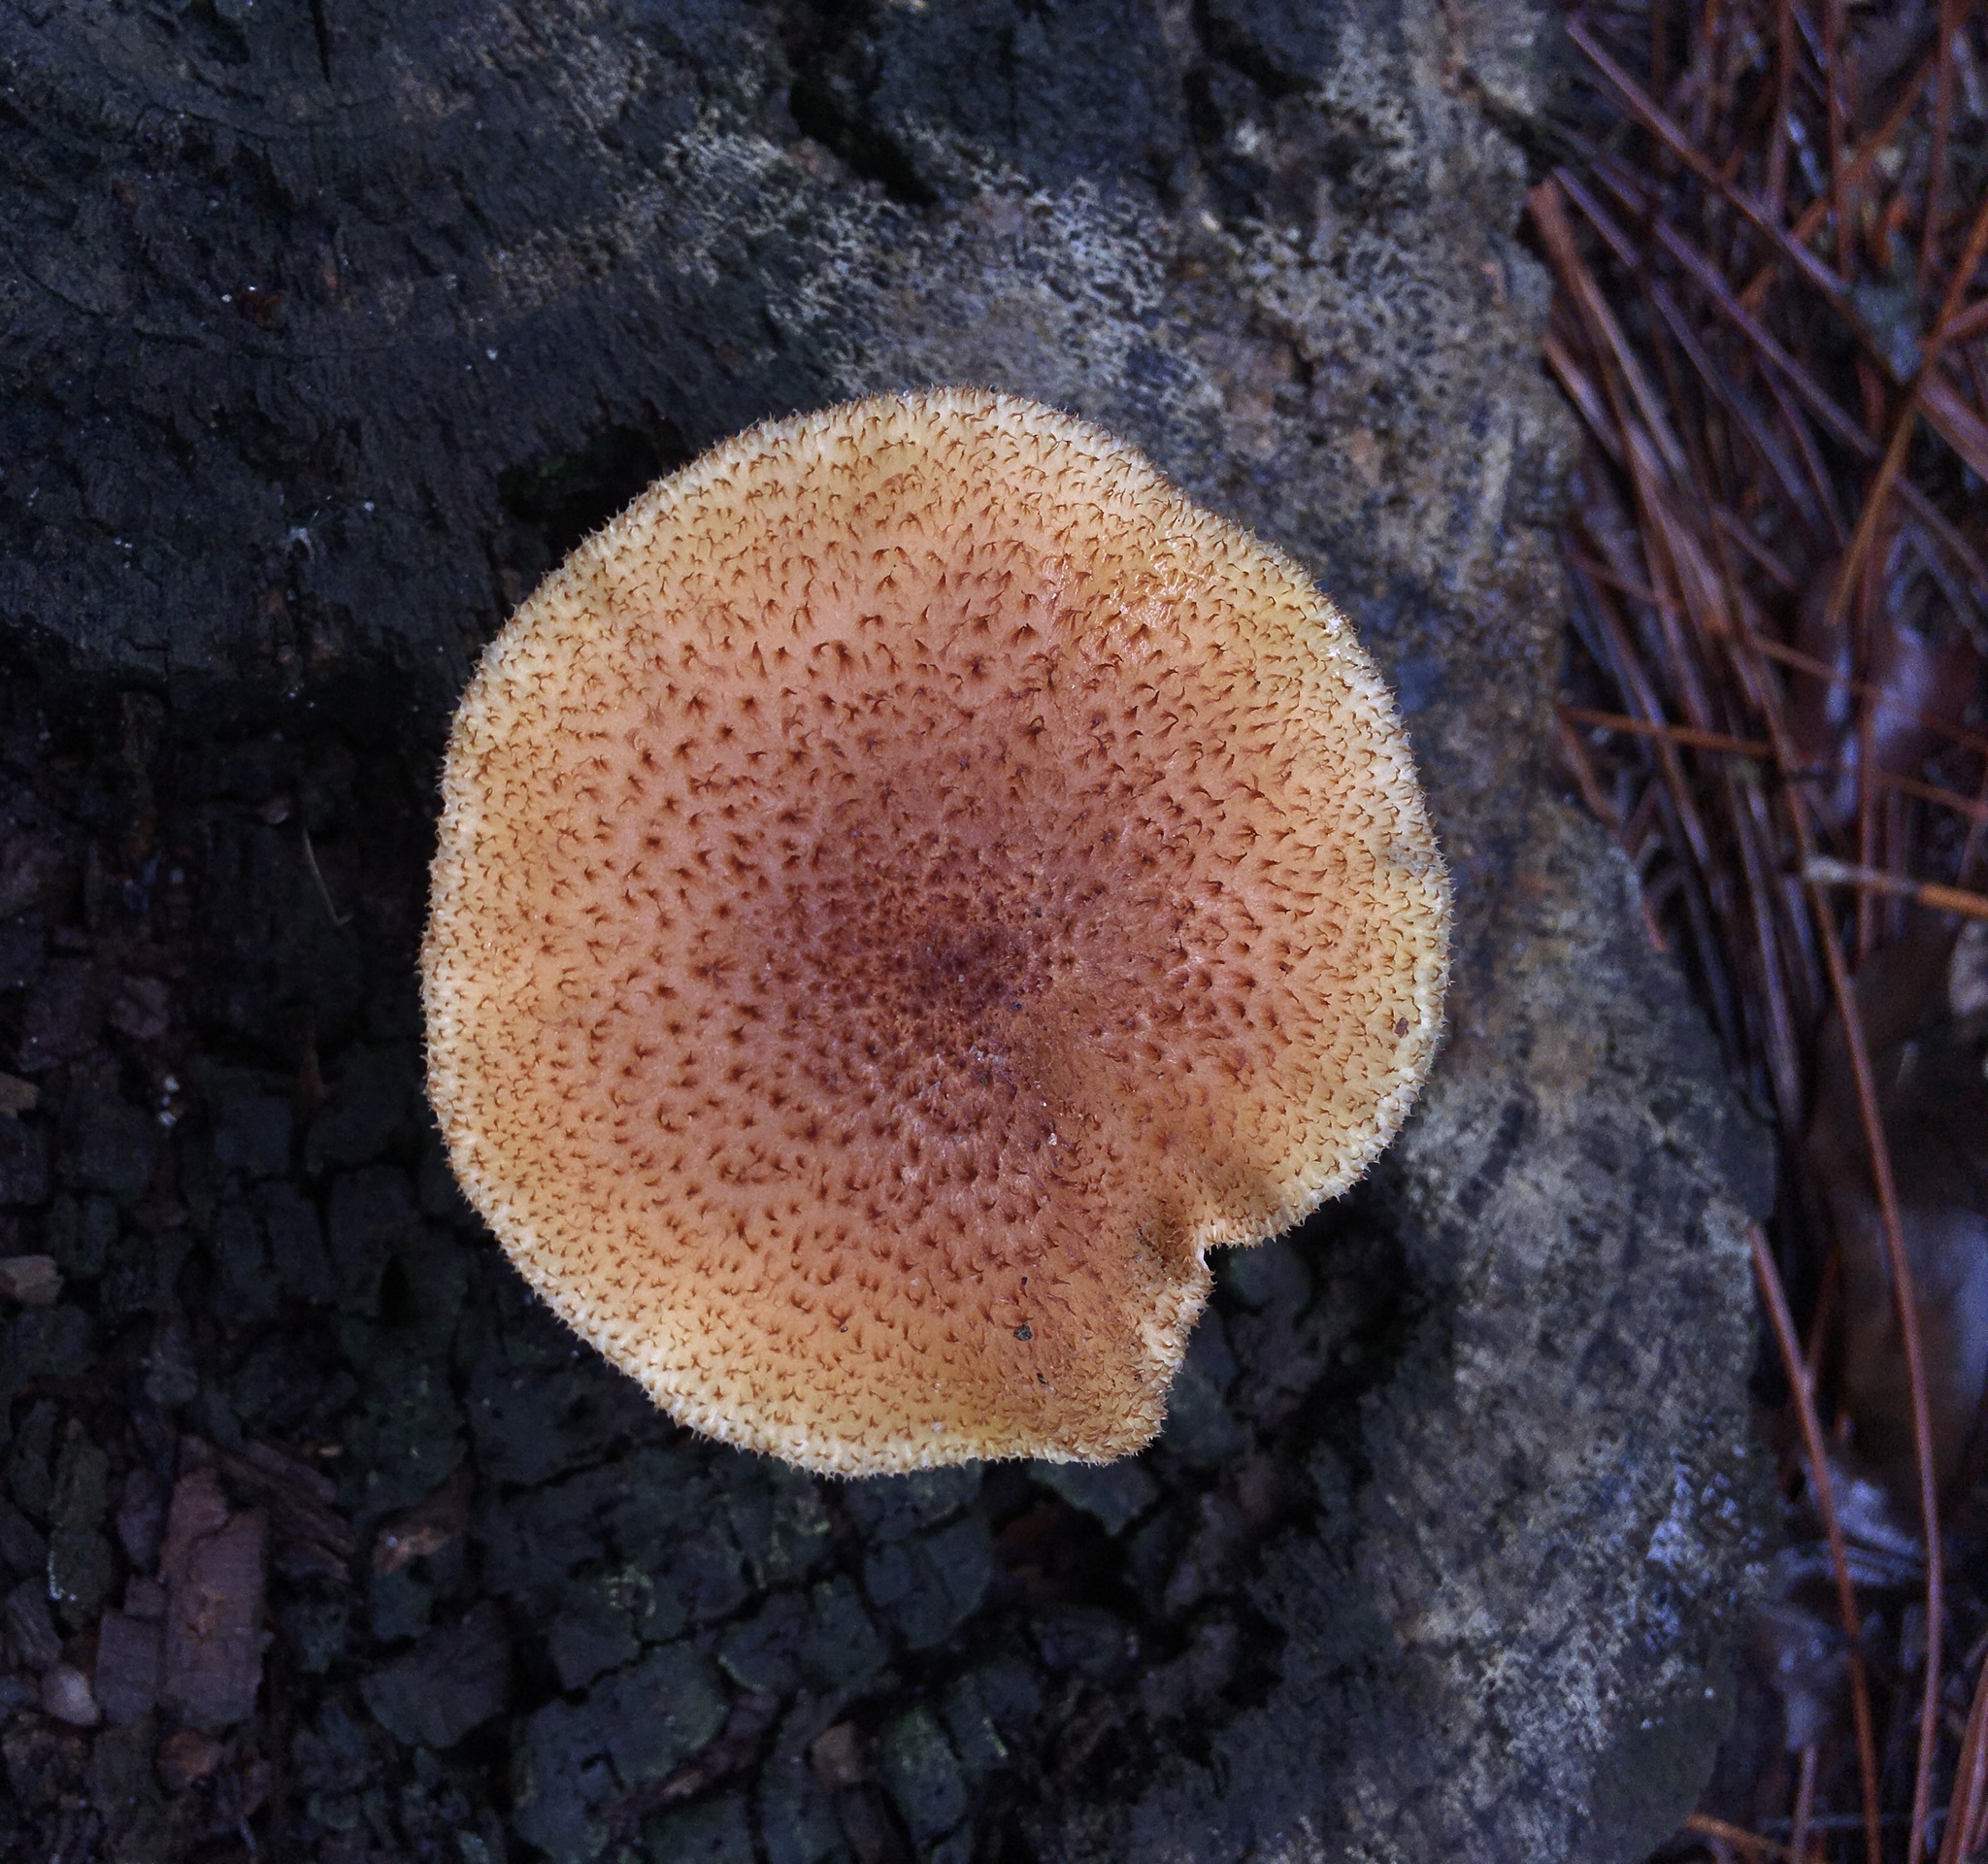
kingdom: Fungi
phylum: Basidiomycota
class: Agaricomycetes
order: Agaricales
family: Tricholomataceae
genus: Tricholomopsis
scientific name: Tricholomopsis formosa
